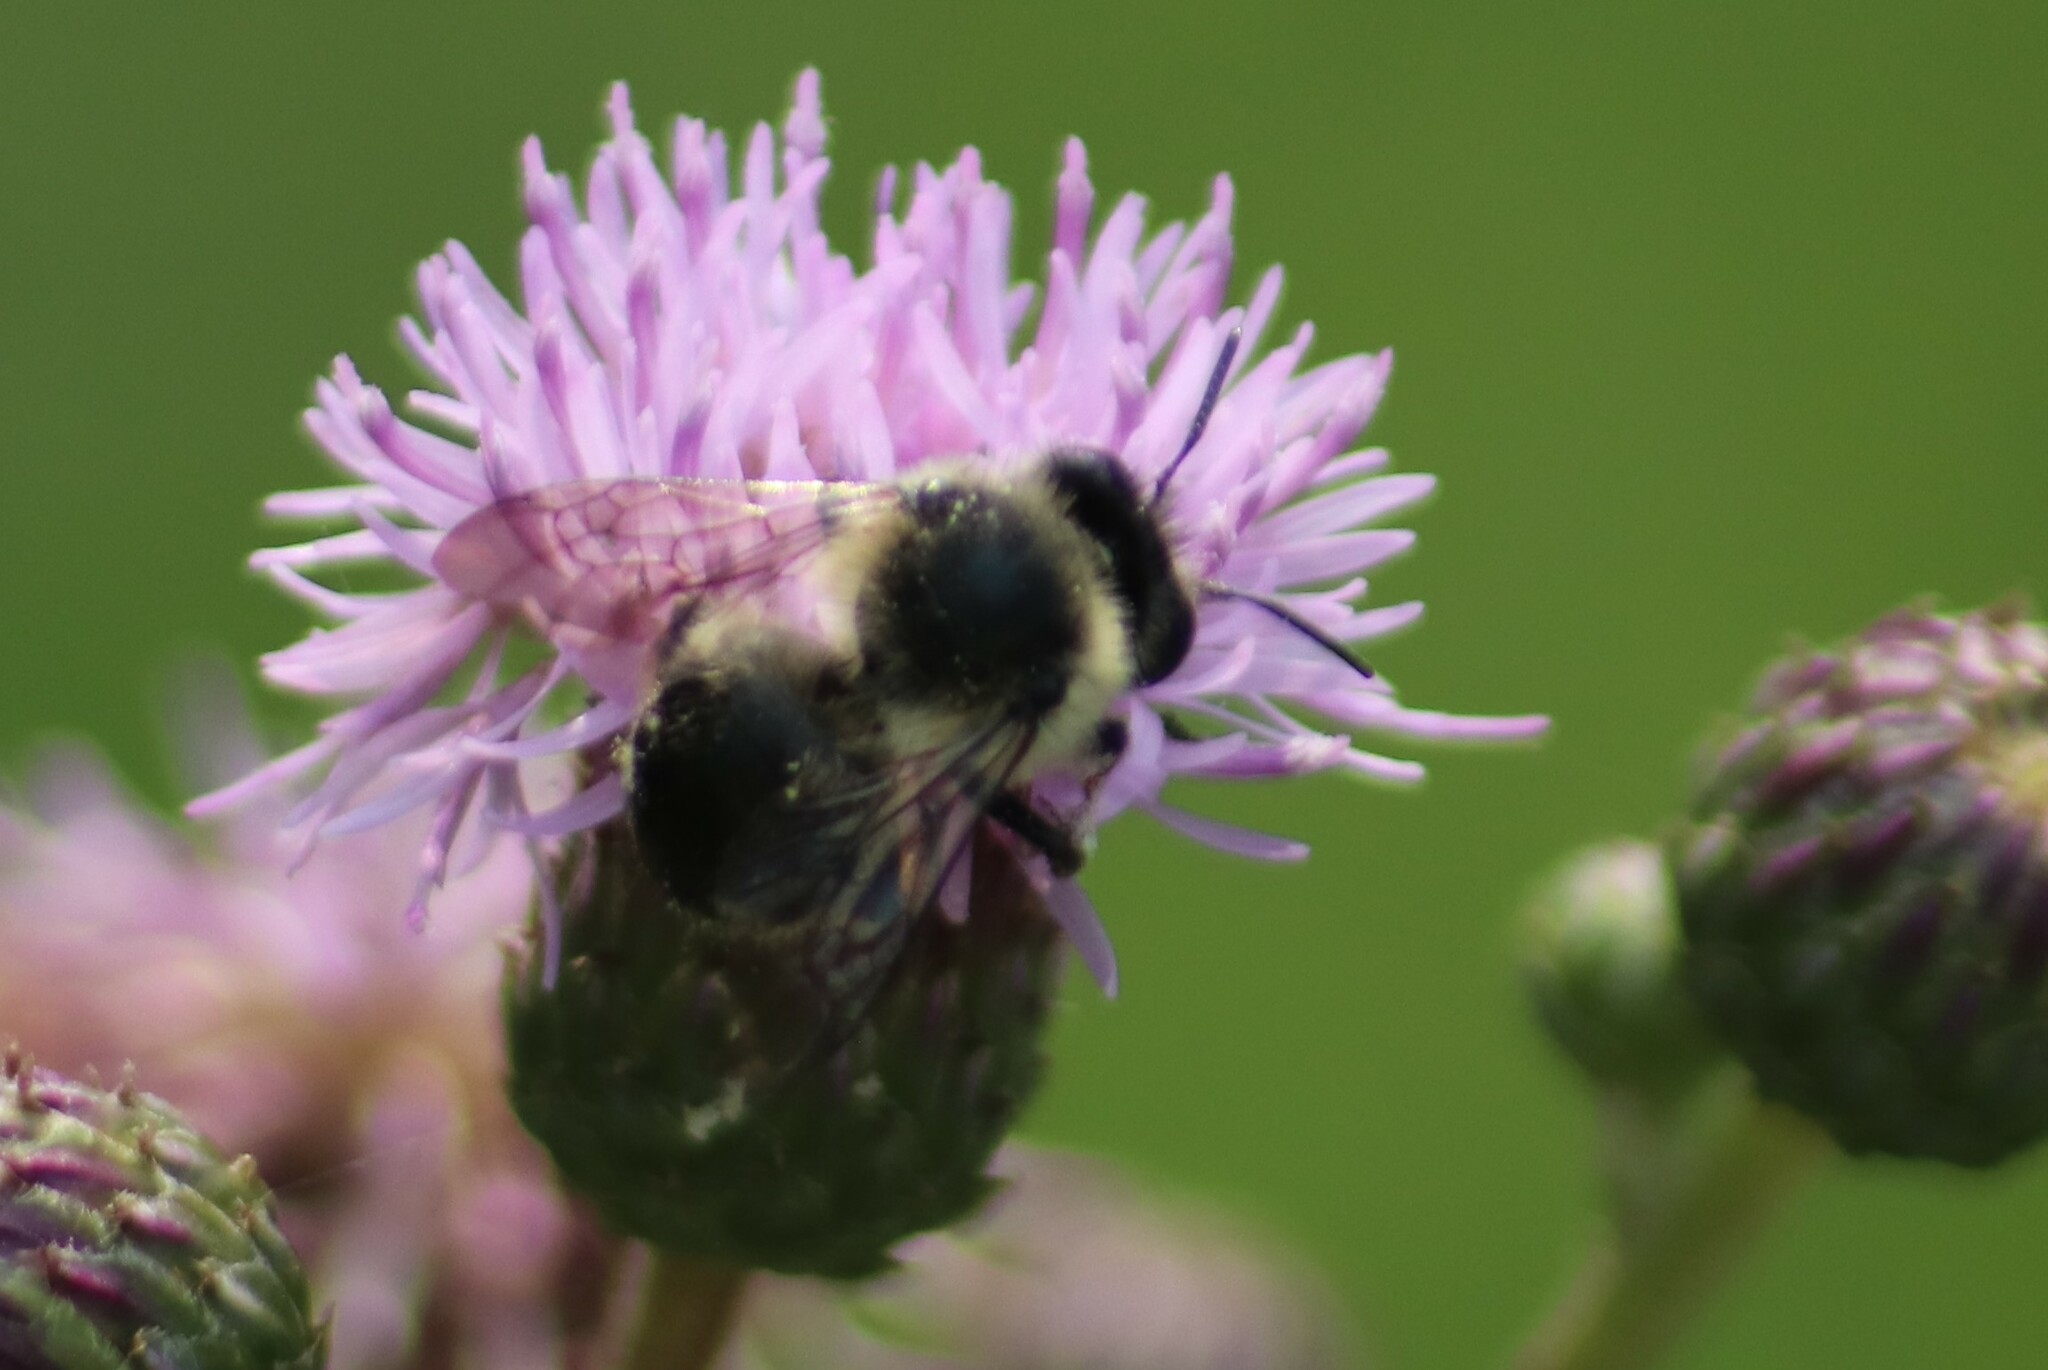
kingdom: Animalia
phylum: Arthropoda
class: Insecta
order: Hymenoptera
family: Apidae
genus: Anthophora
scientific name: Anthophora terminalis
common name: Orange-tipped wood-digger bee
